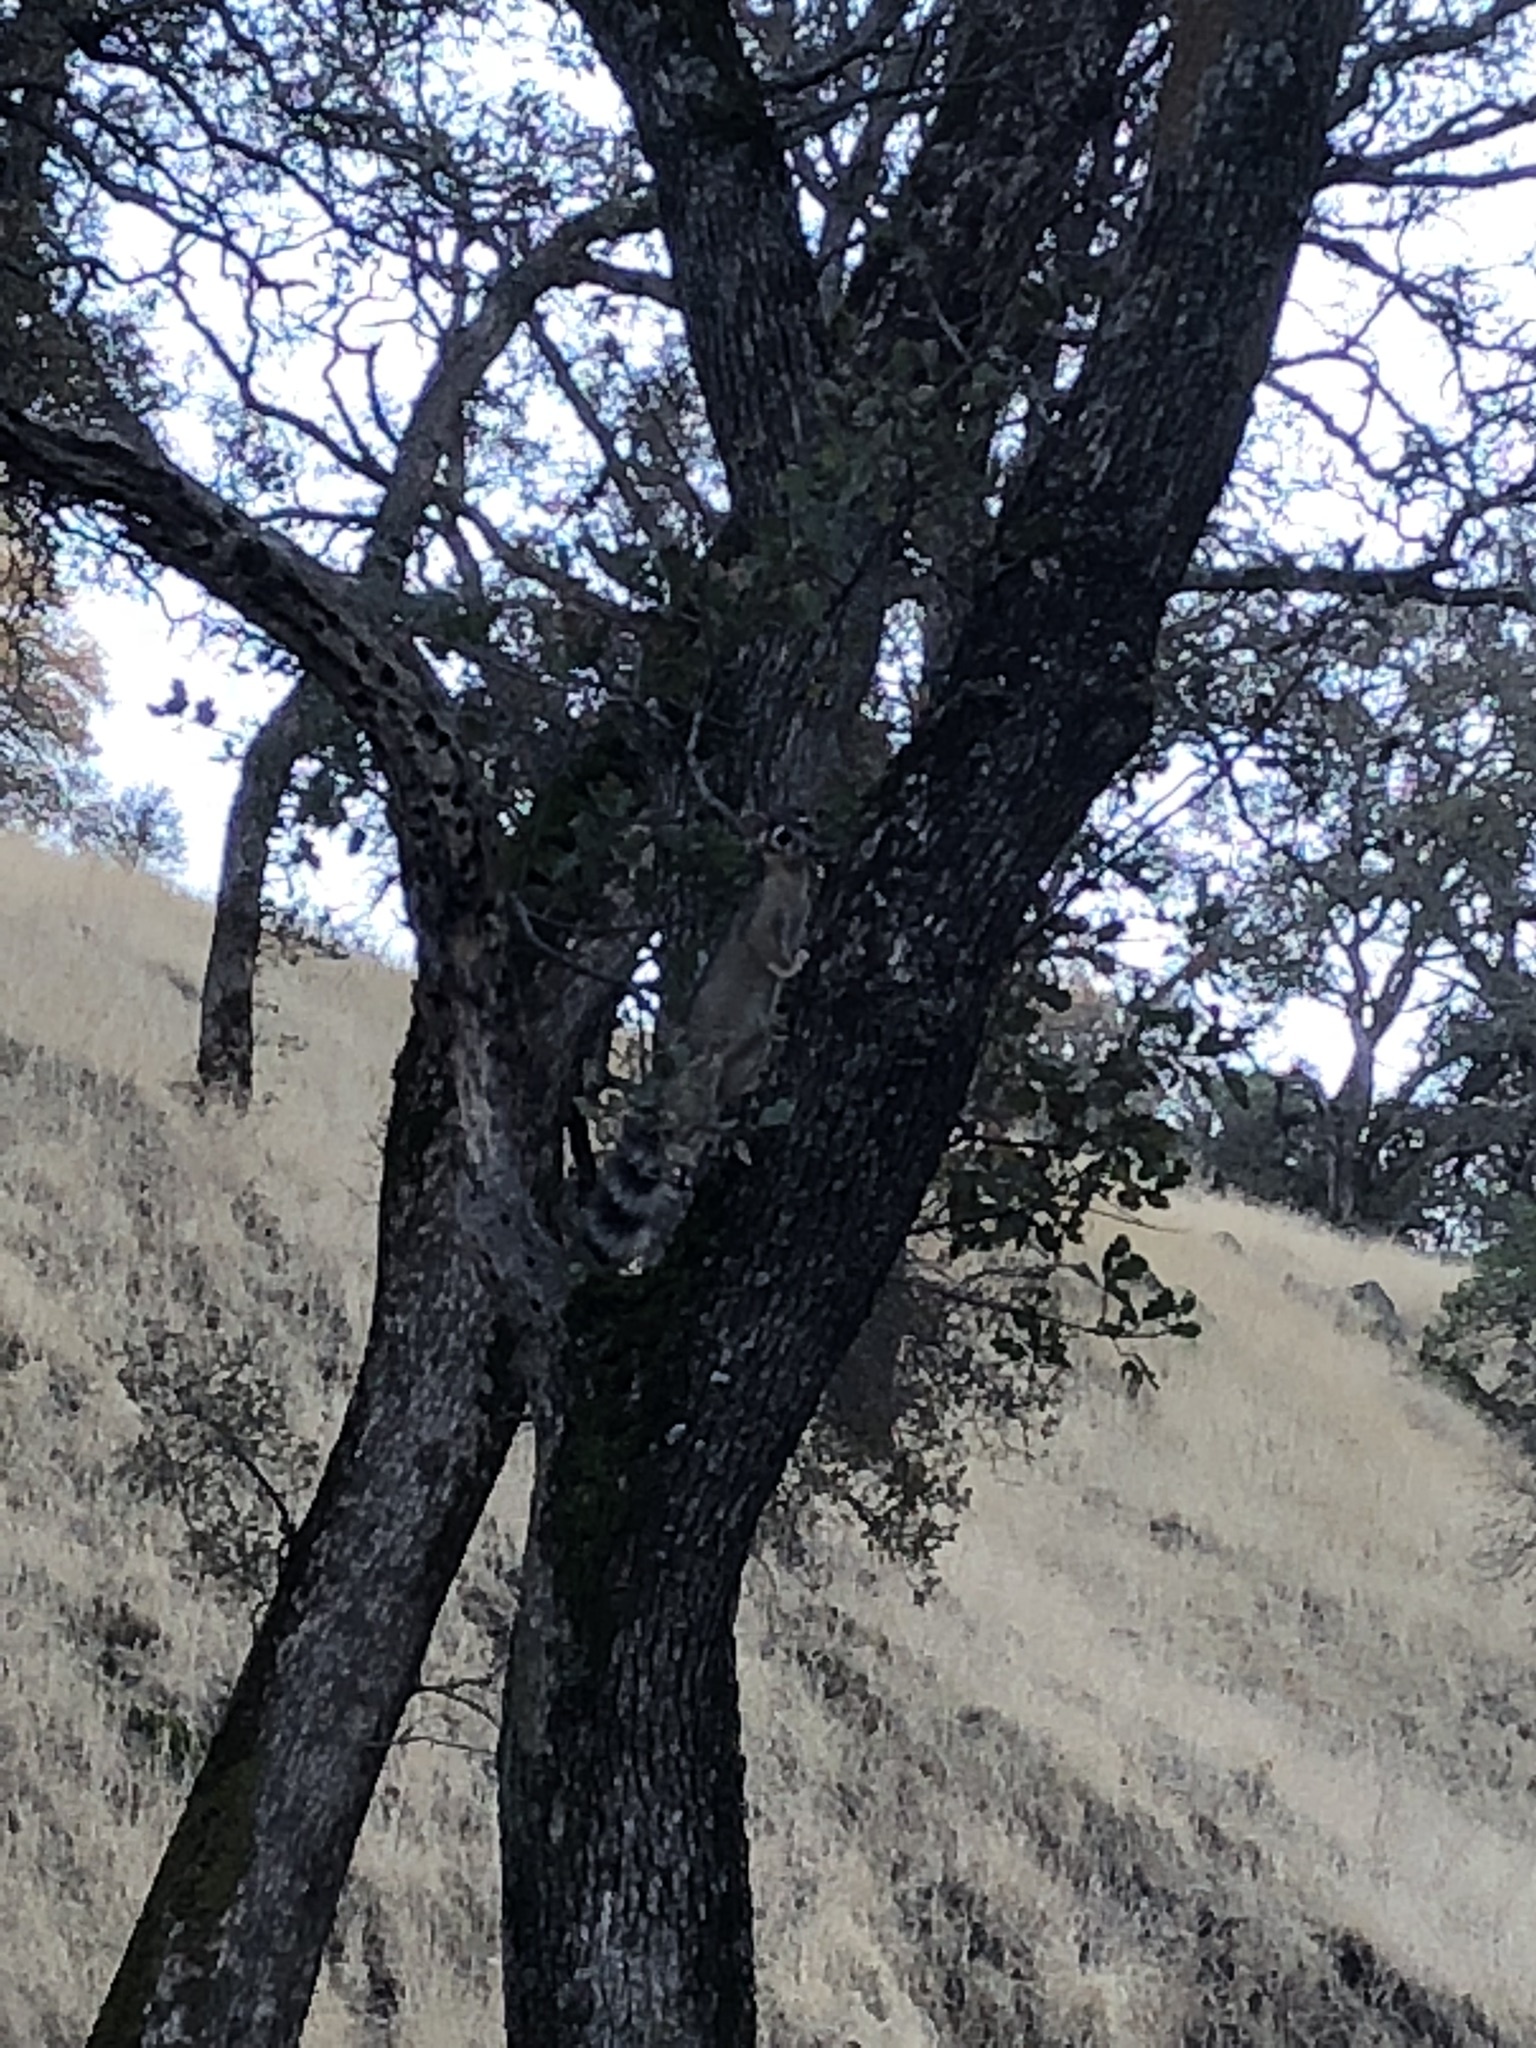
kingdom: Animalia
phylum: Chordata
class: Mammalia
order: Carnivora
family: Procyonidae
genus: Bassariscus
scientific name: Bassariscus astutus
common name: Ringtail
